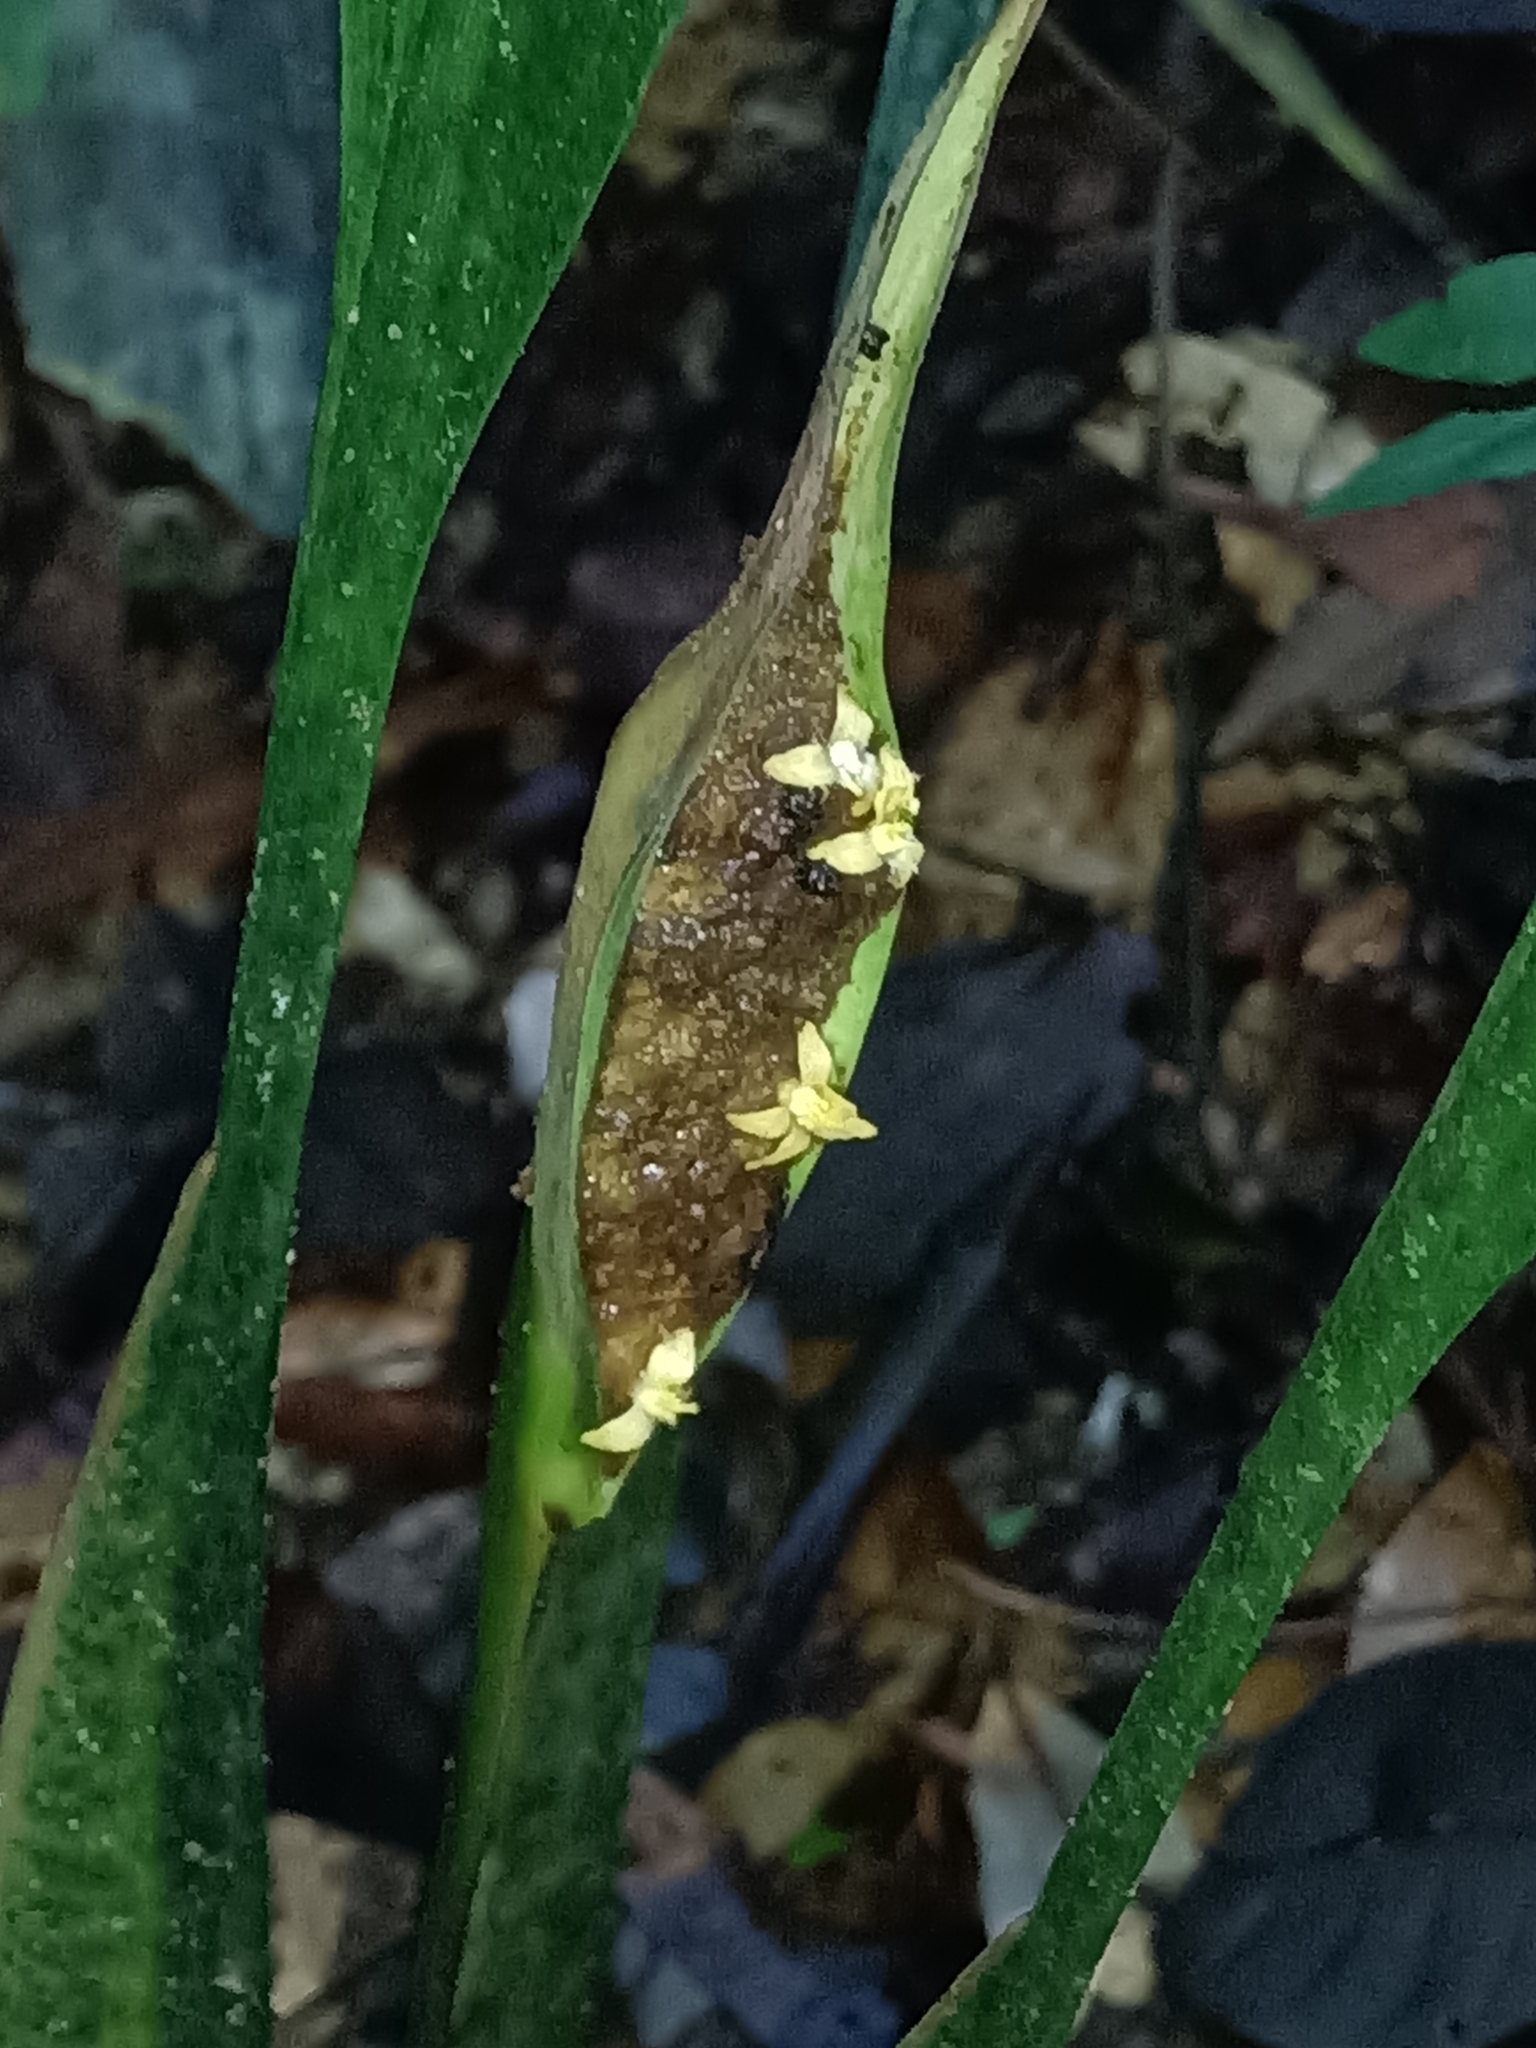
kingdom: Plantae
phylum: Tracheophyta
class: Liliopsida
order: Poales
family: Rapateaceae
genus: Spathanthus
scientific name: Spathanthus unilateralis
